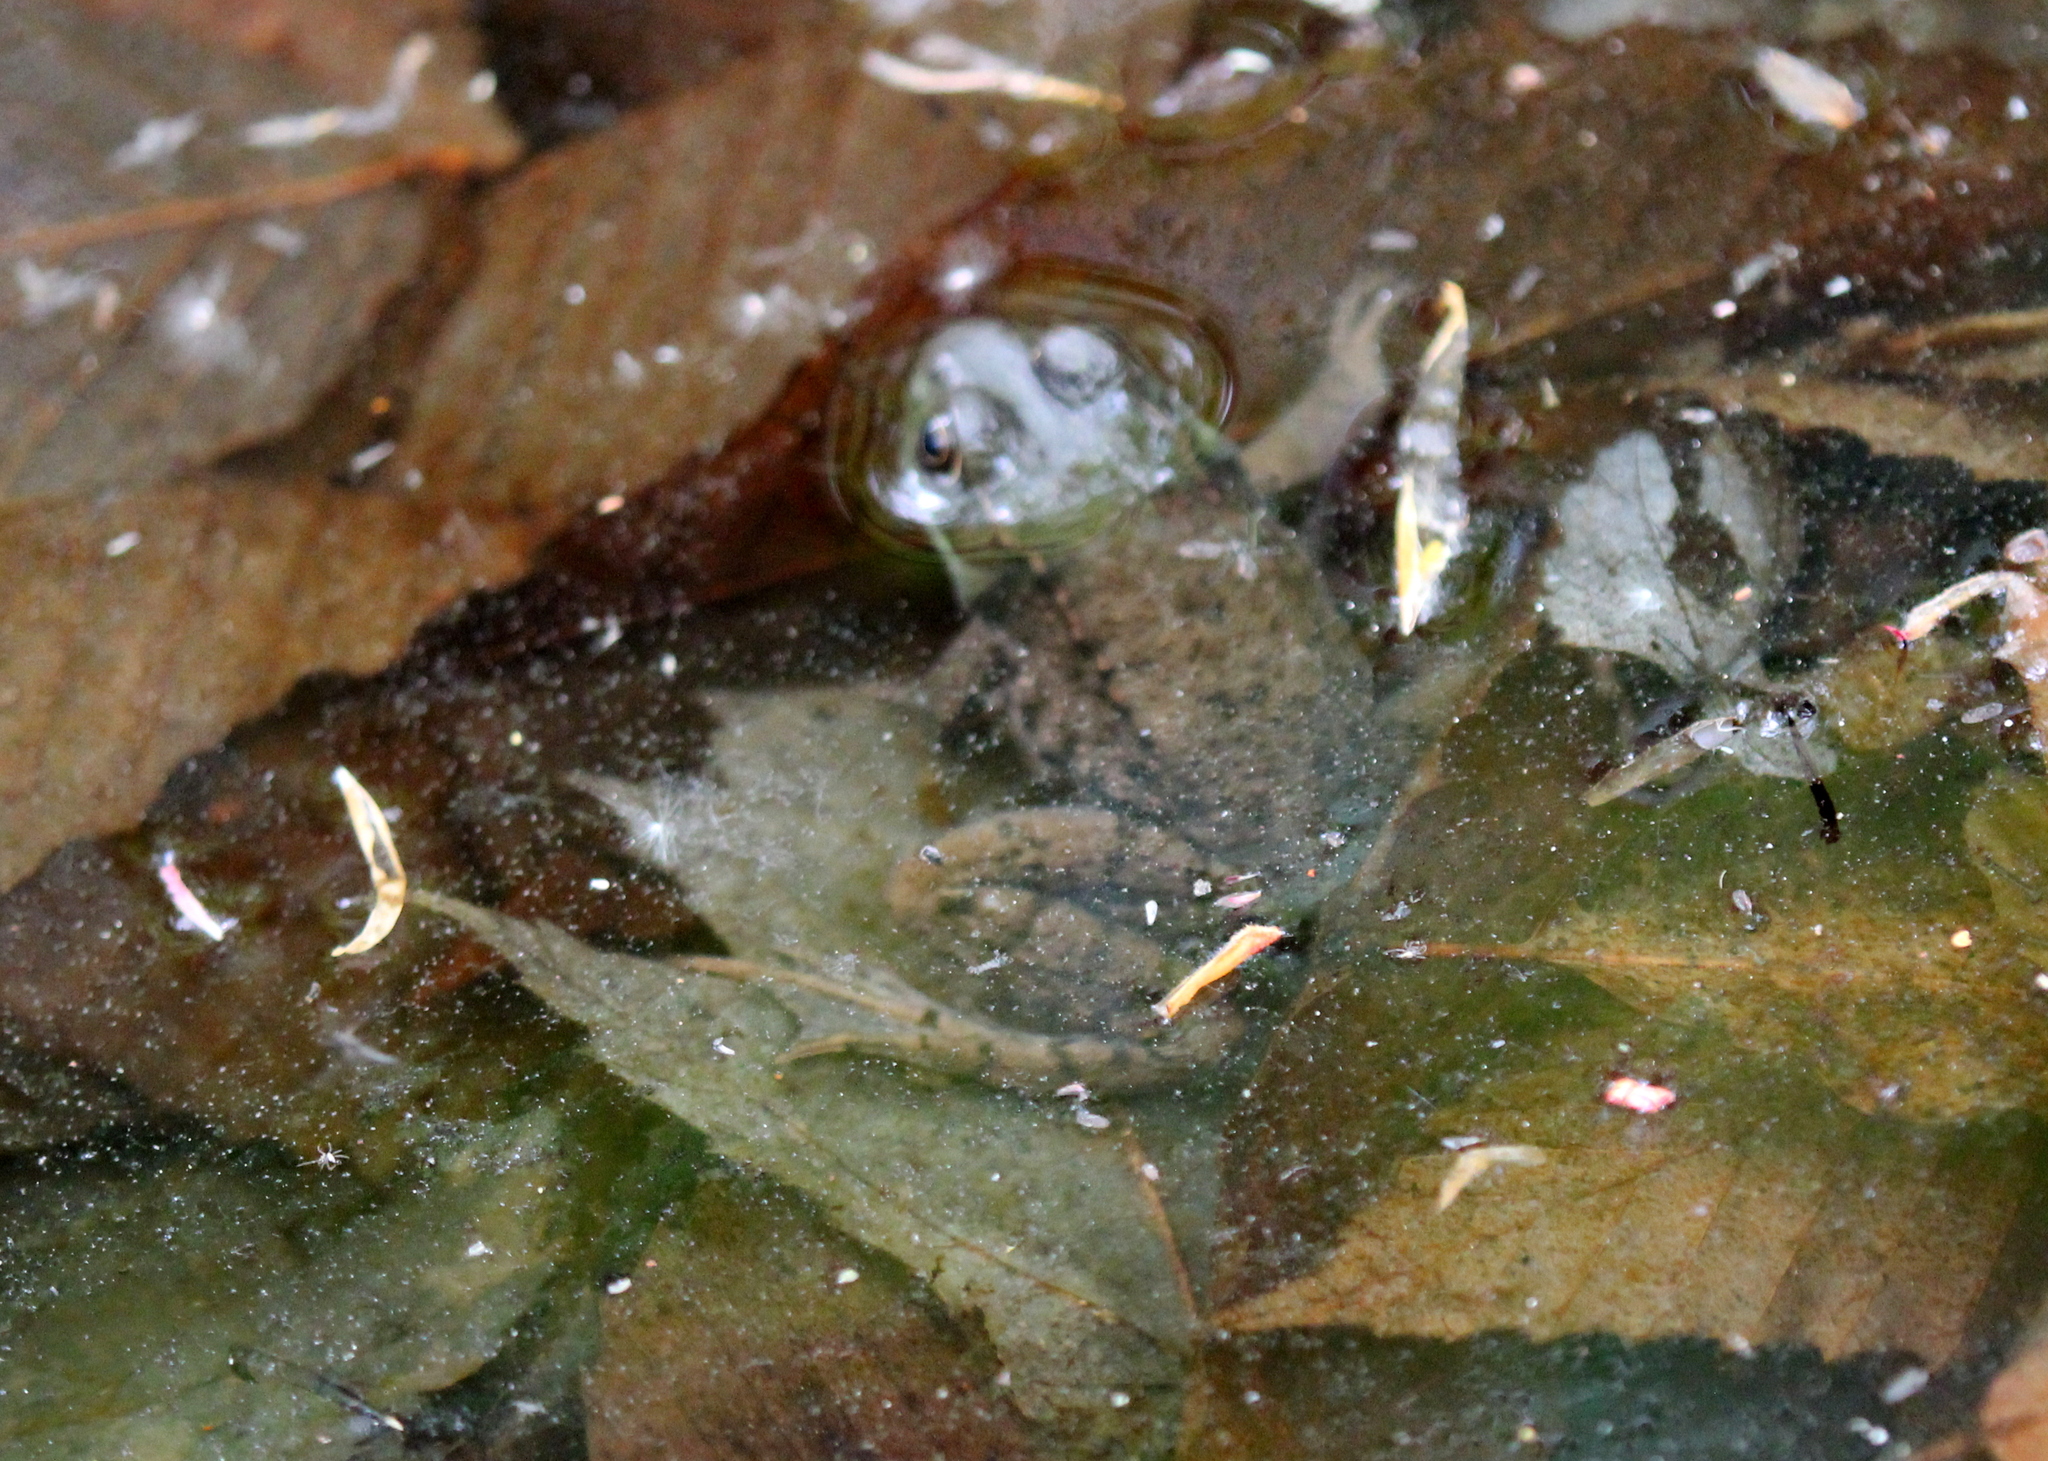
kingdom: Animalia
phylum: Chordata
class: Amphibia
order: Anura
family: Ranidae
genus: Lithobates
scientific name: Lithobates clamitans
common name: Green frog
